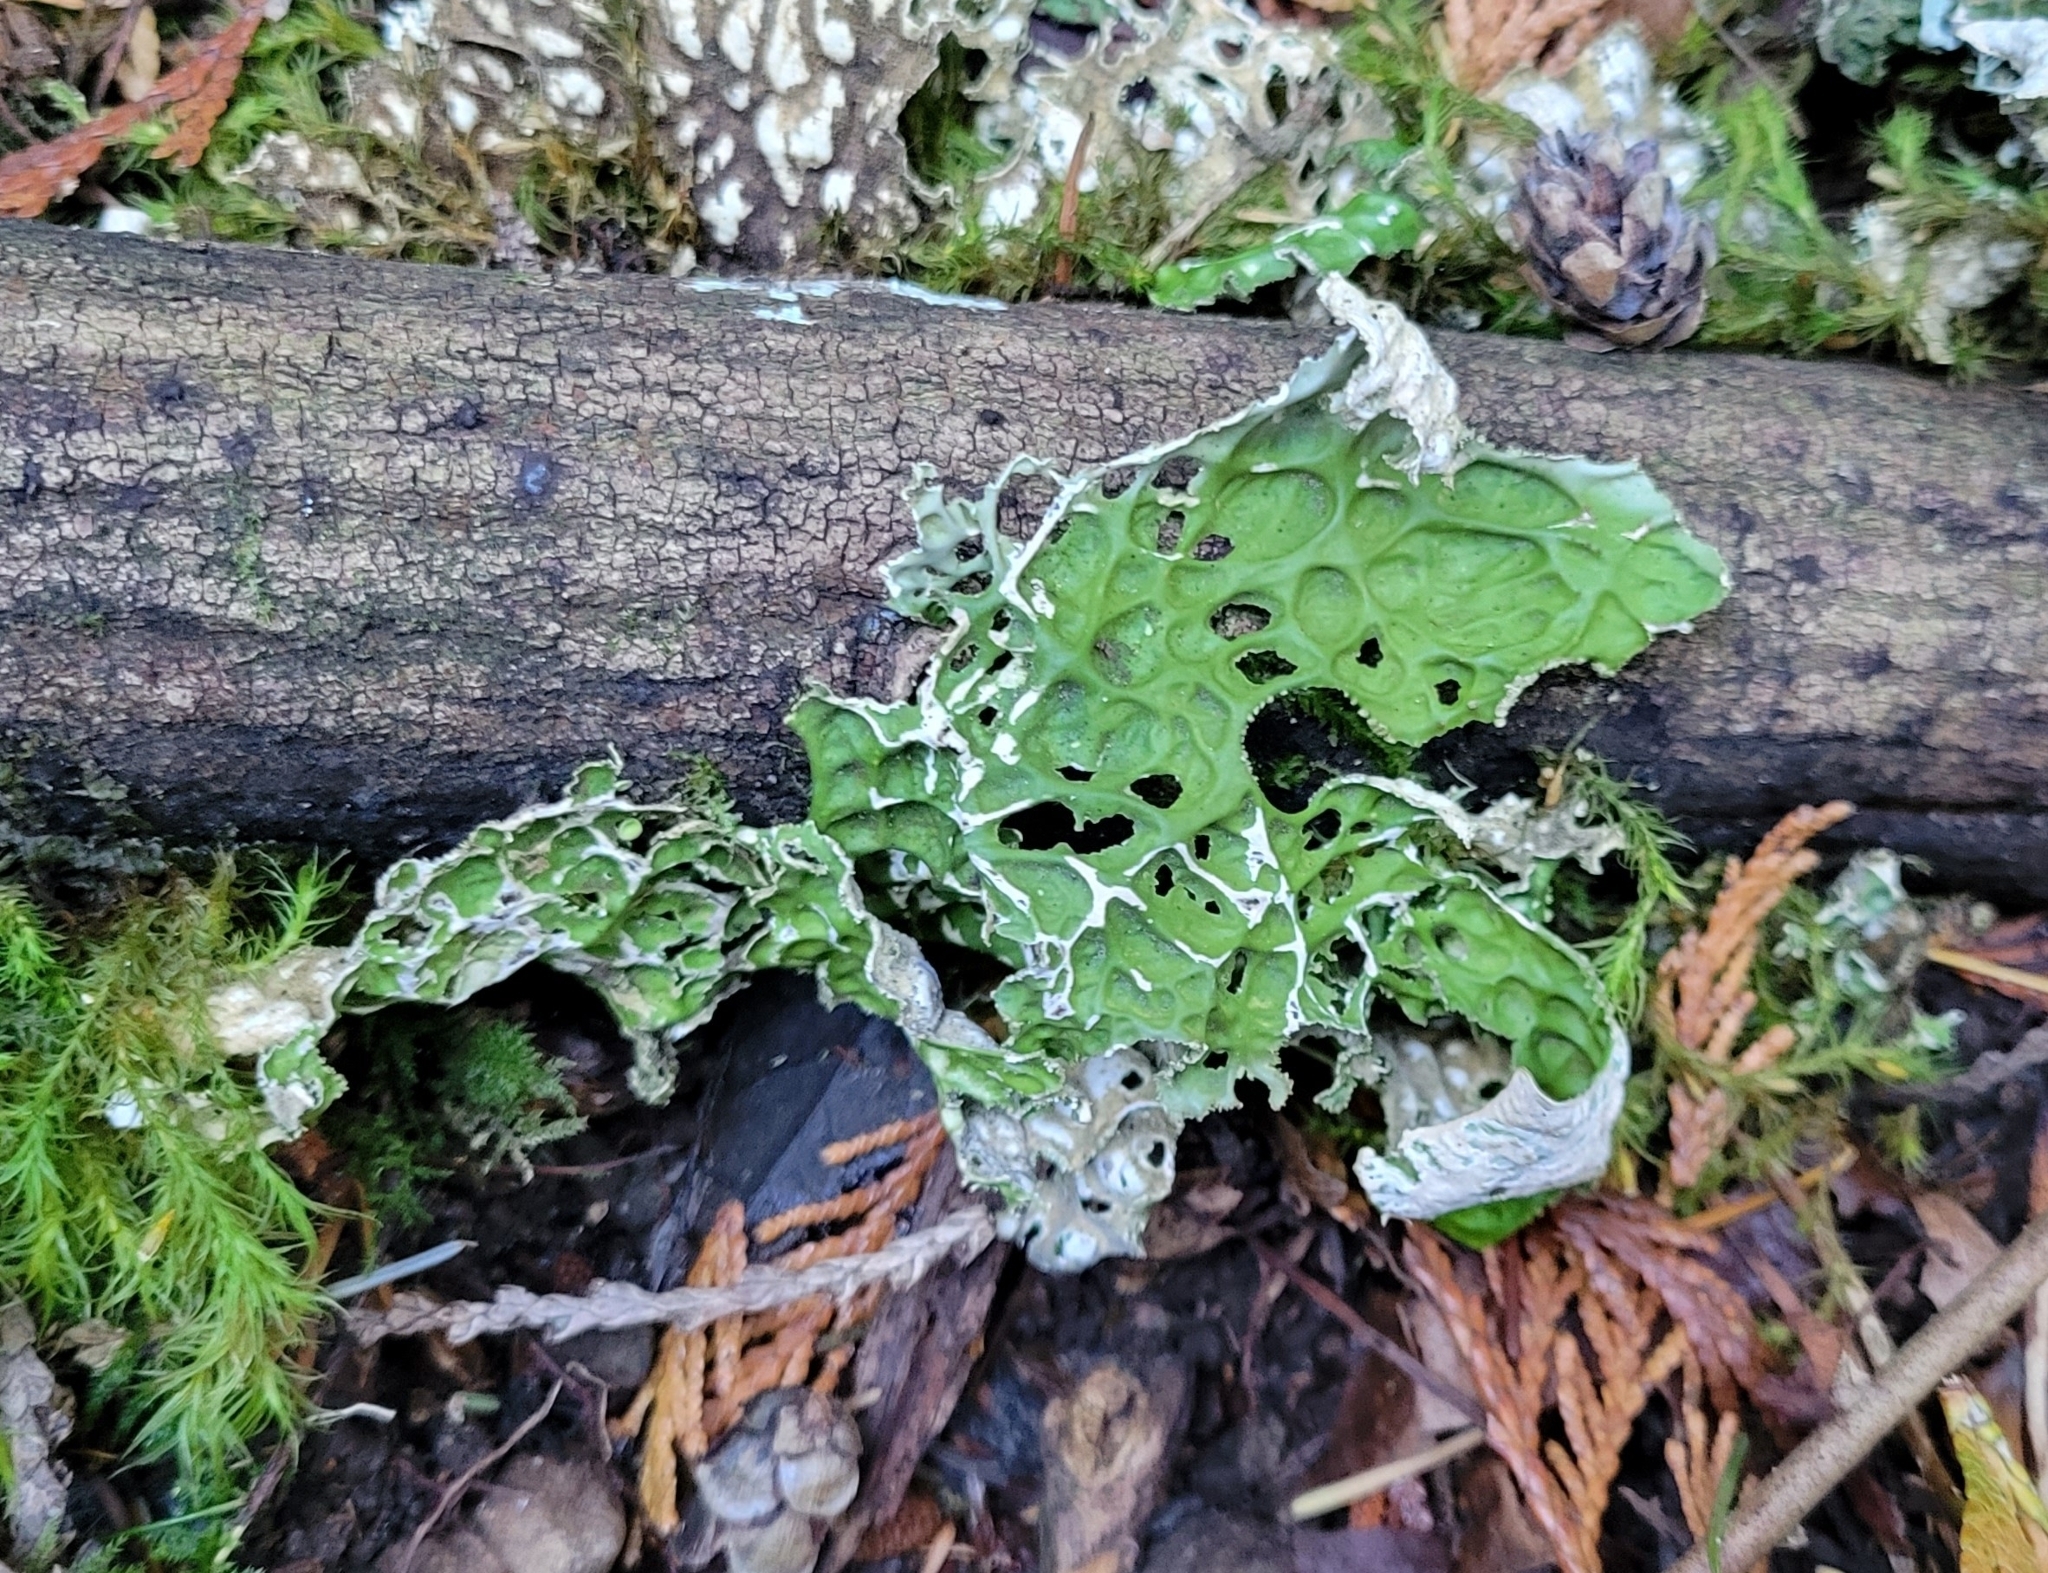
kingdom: Fungi
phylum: Ascomycota
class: Lecanoromycetes
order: Peltigerales
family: Lobariaceae
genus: Lobaria
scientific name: Lobaria pulmonaria
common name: Lungwort
